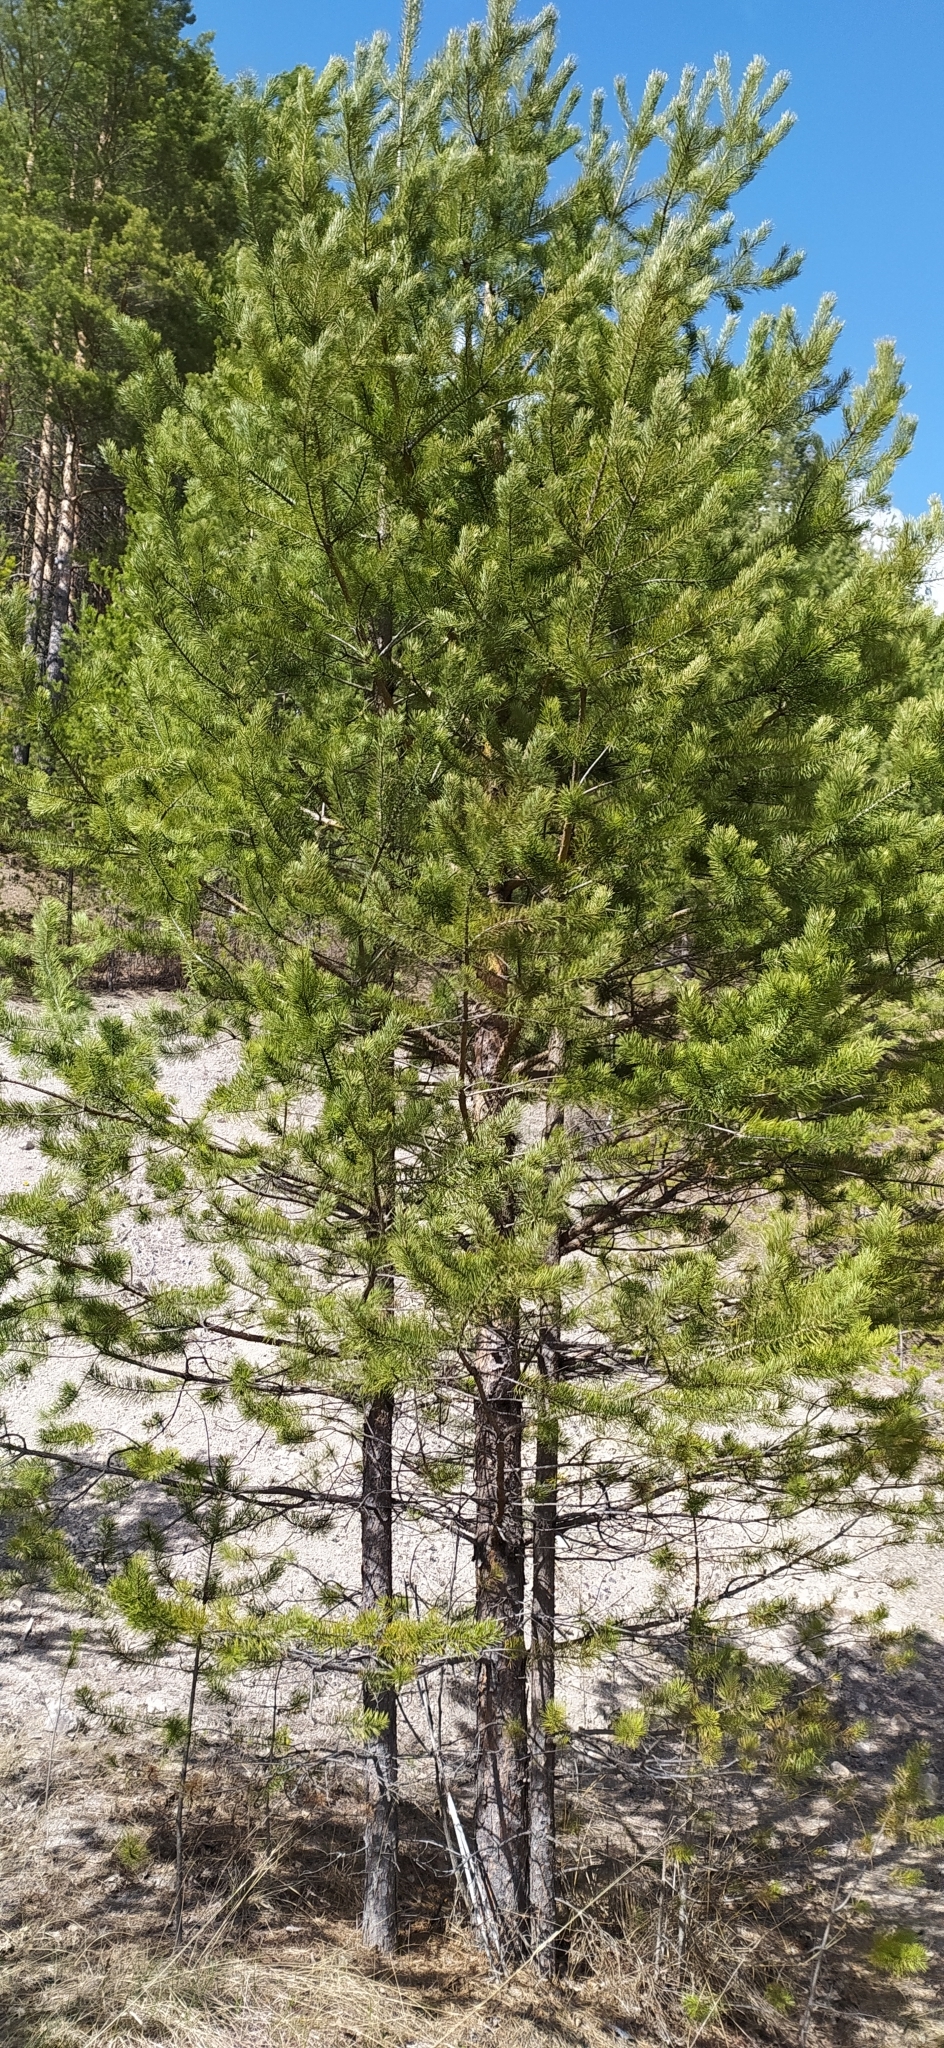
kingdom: Plantae
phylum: Tracheophyta
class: Pinopsida
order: Pinales
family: Pinaceae
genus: Pinus
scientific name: Pinus sylvestris
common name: Scots pine
